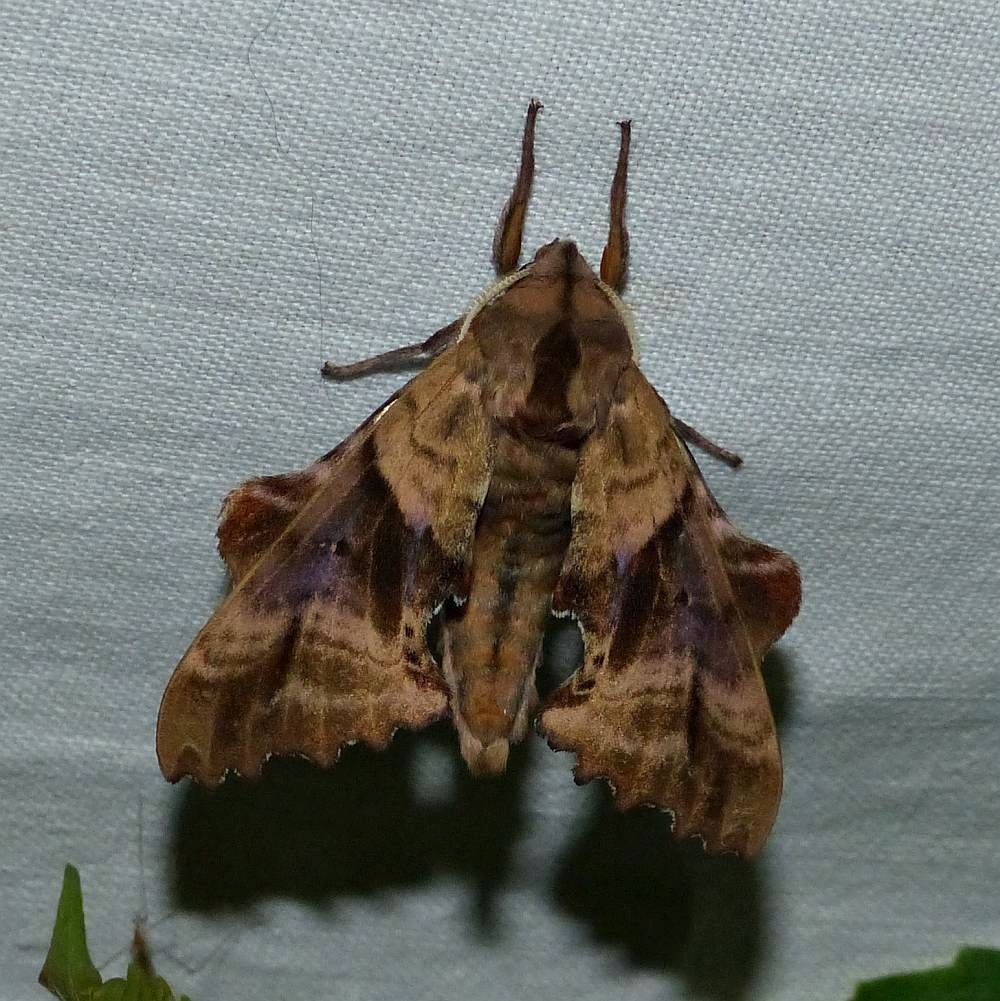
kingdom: Animalia
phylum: Arthropoda
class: Insecta
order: Lepidoptera
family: Sphingidae
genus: Paonias
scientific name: Paonias excaecata
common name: Blind-eyed sphinx
